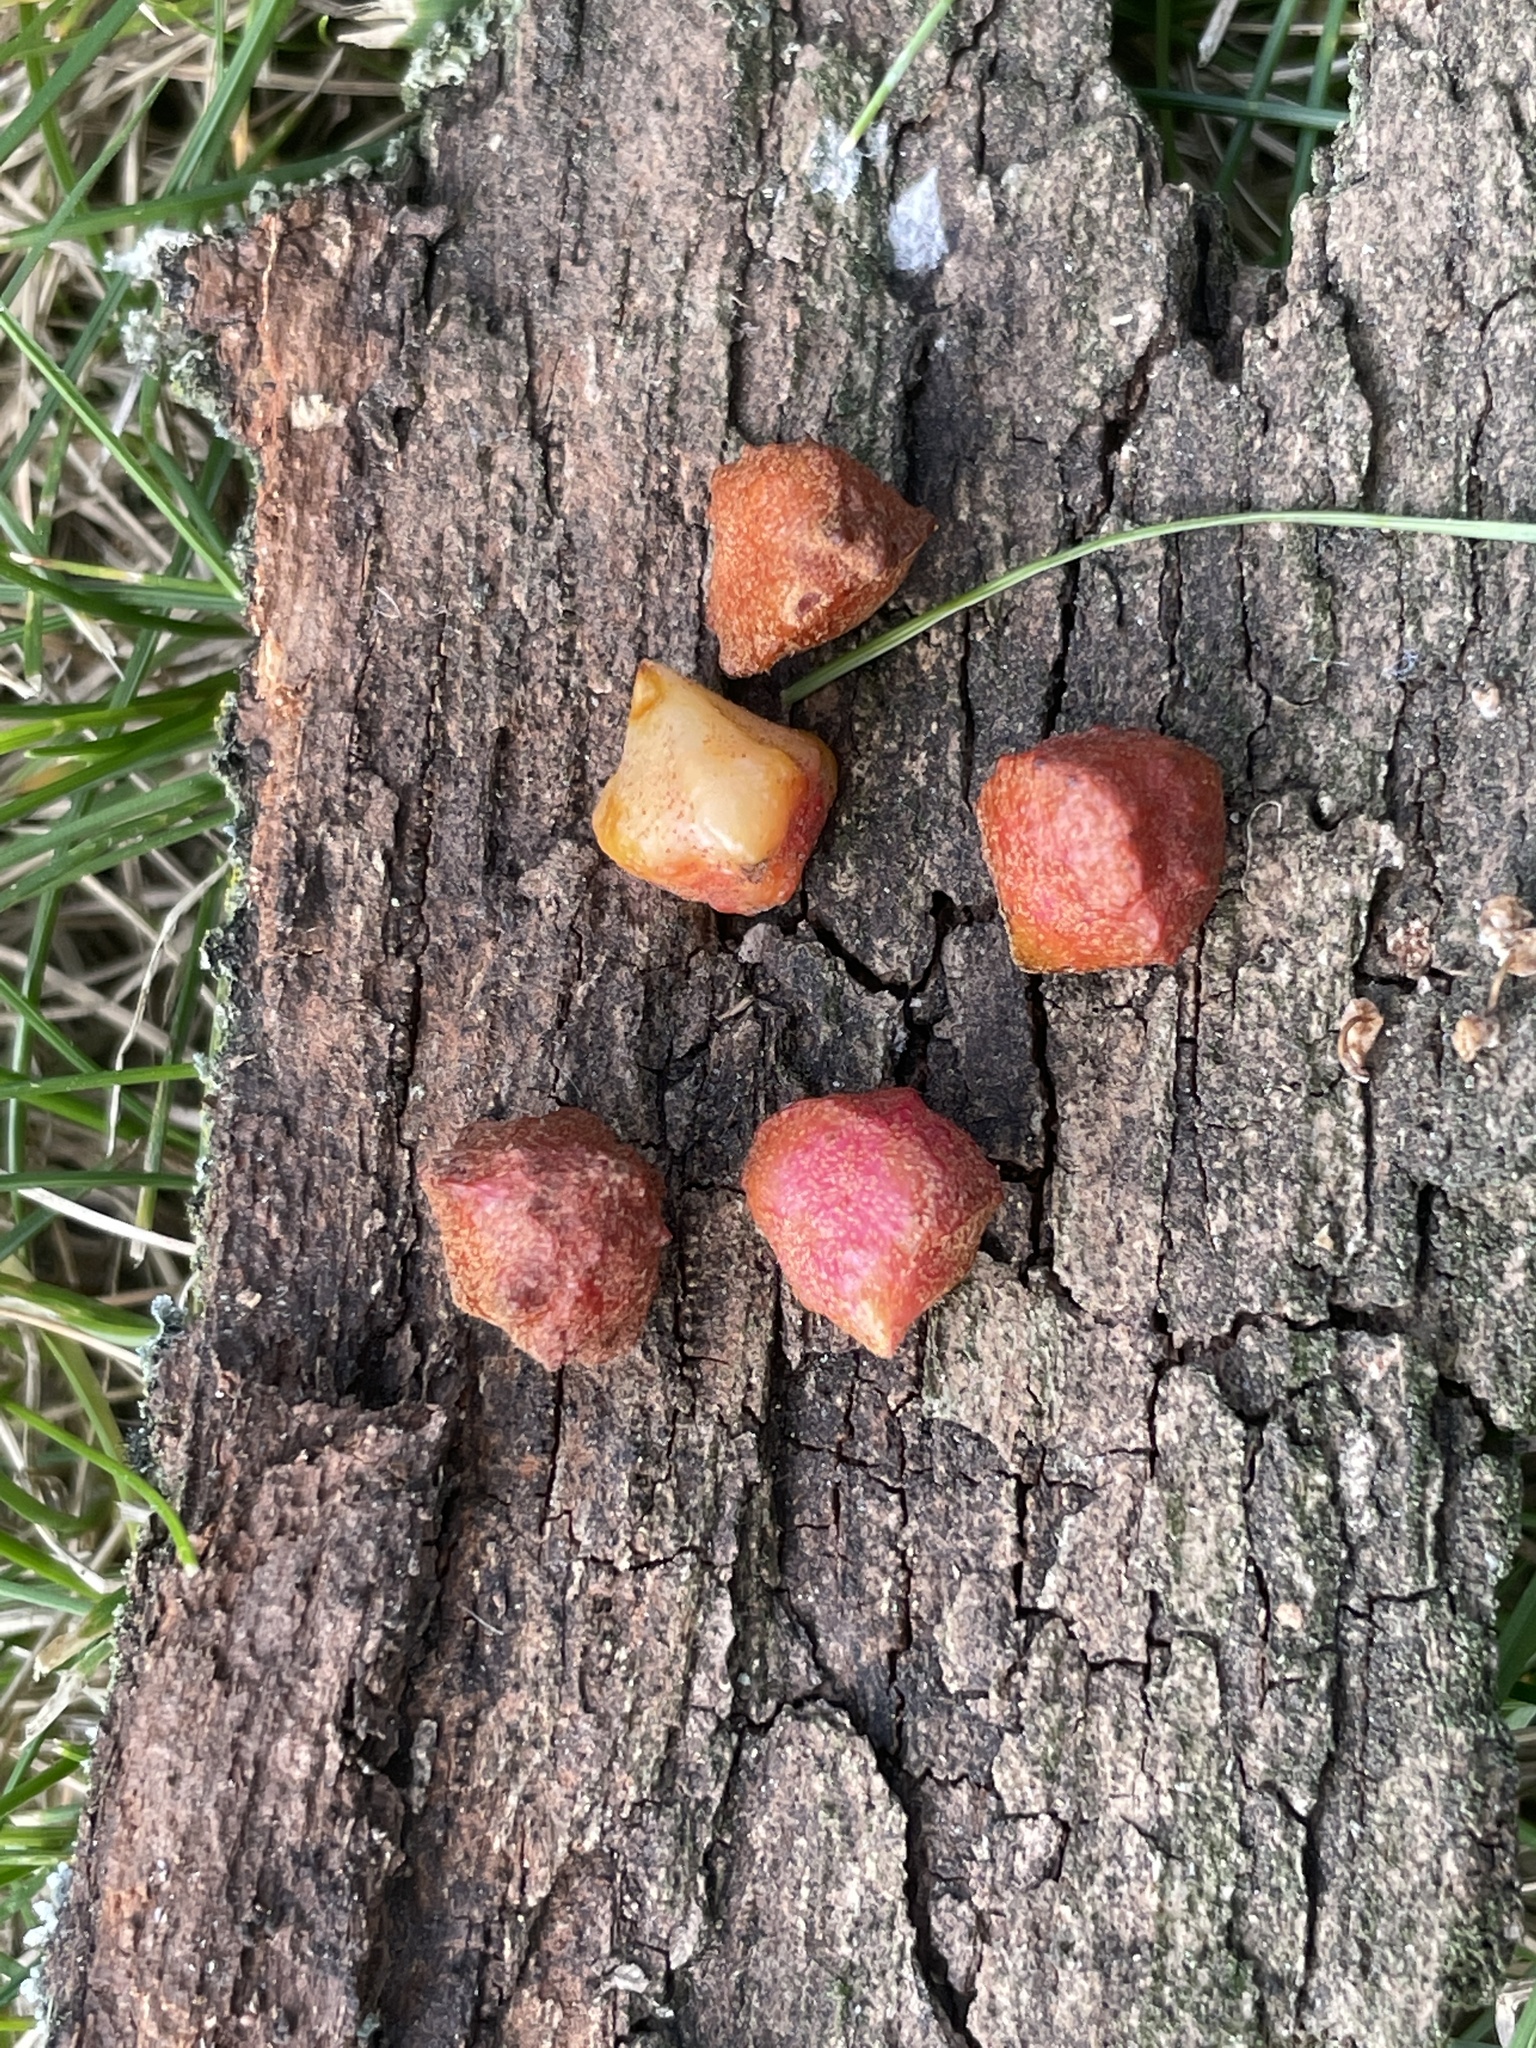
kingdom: Animalia
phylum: Arthropoda
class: Insecta
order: Hymenoptera
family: Cynipidae
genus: Andricus
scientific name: Andricus
